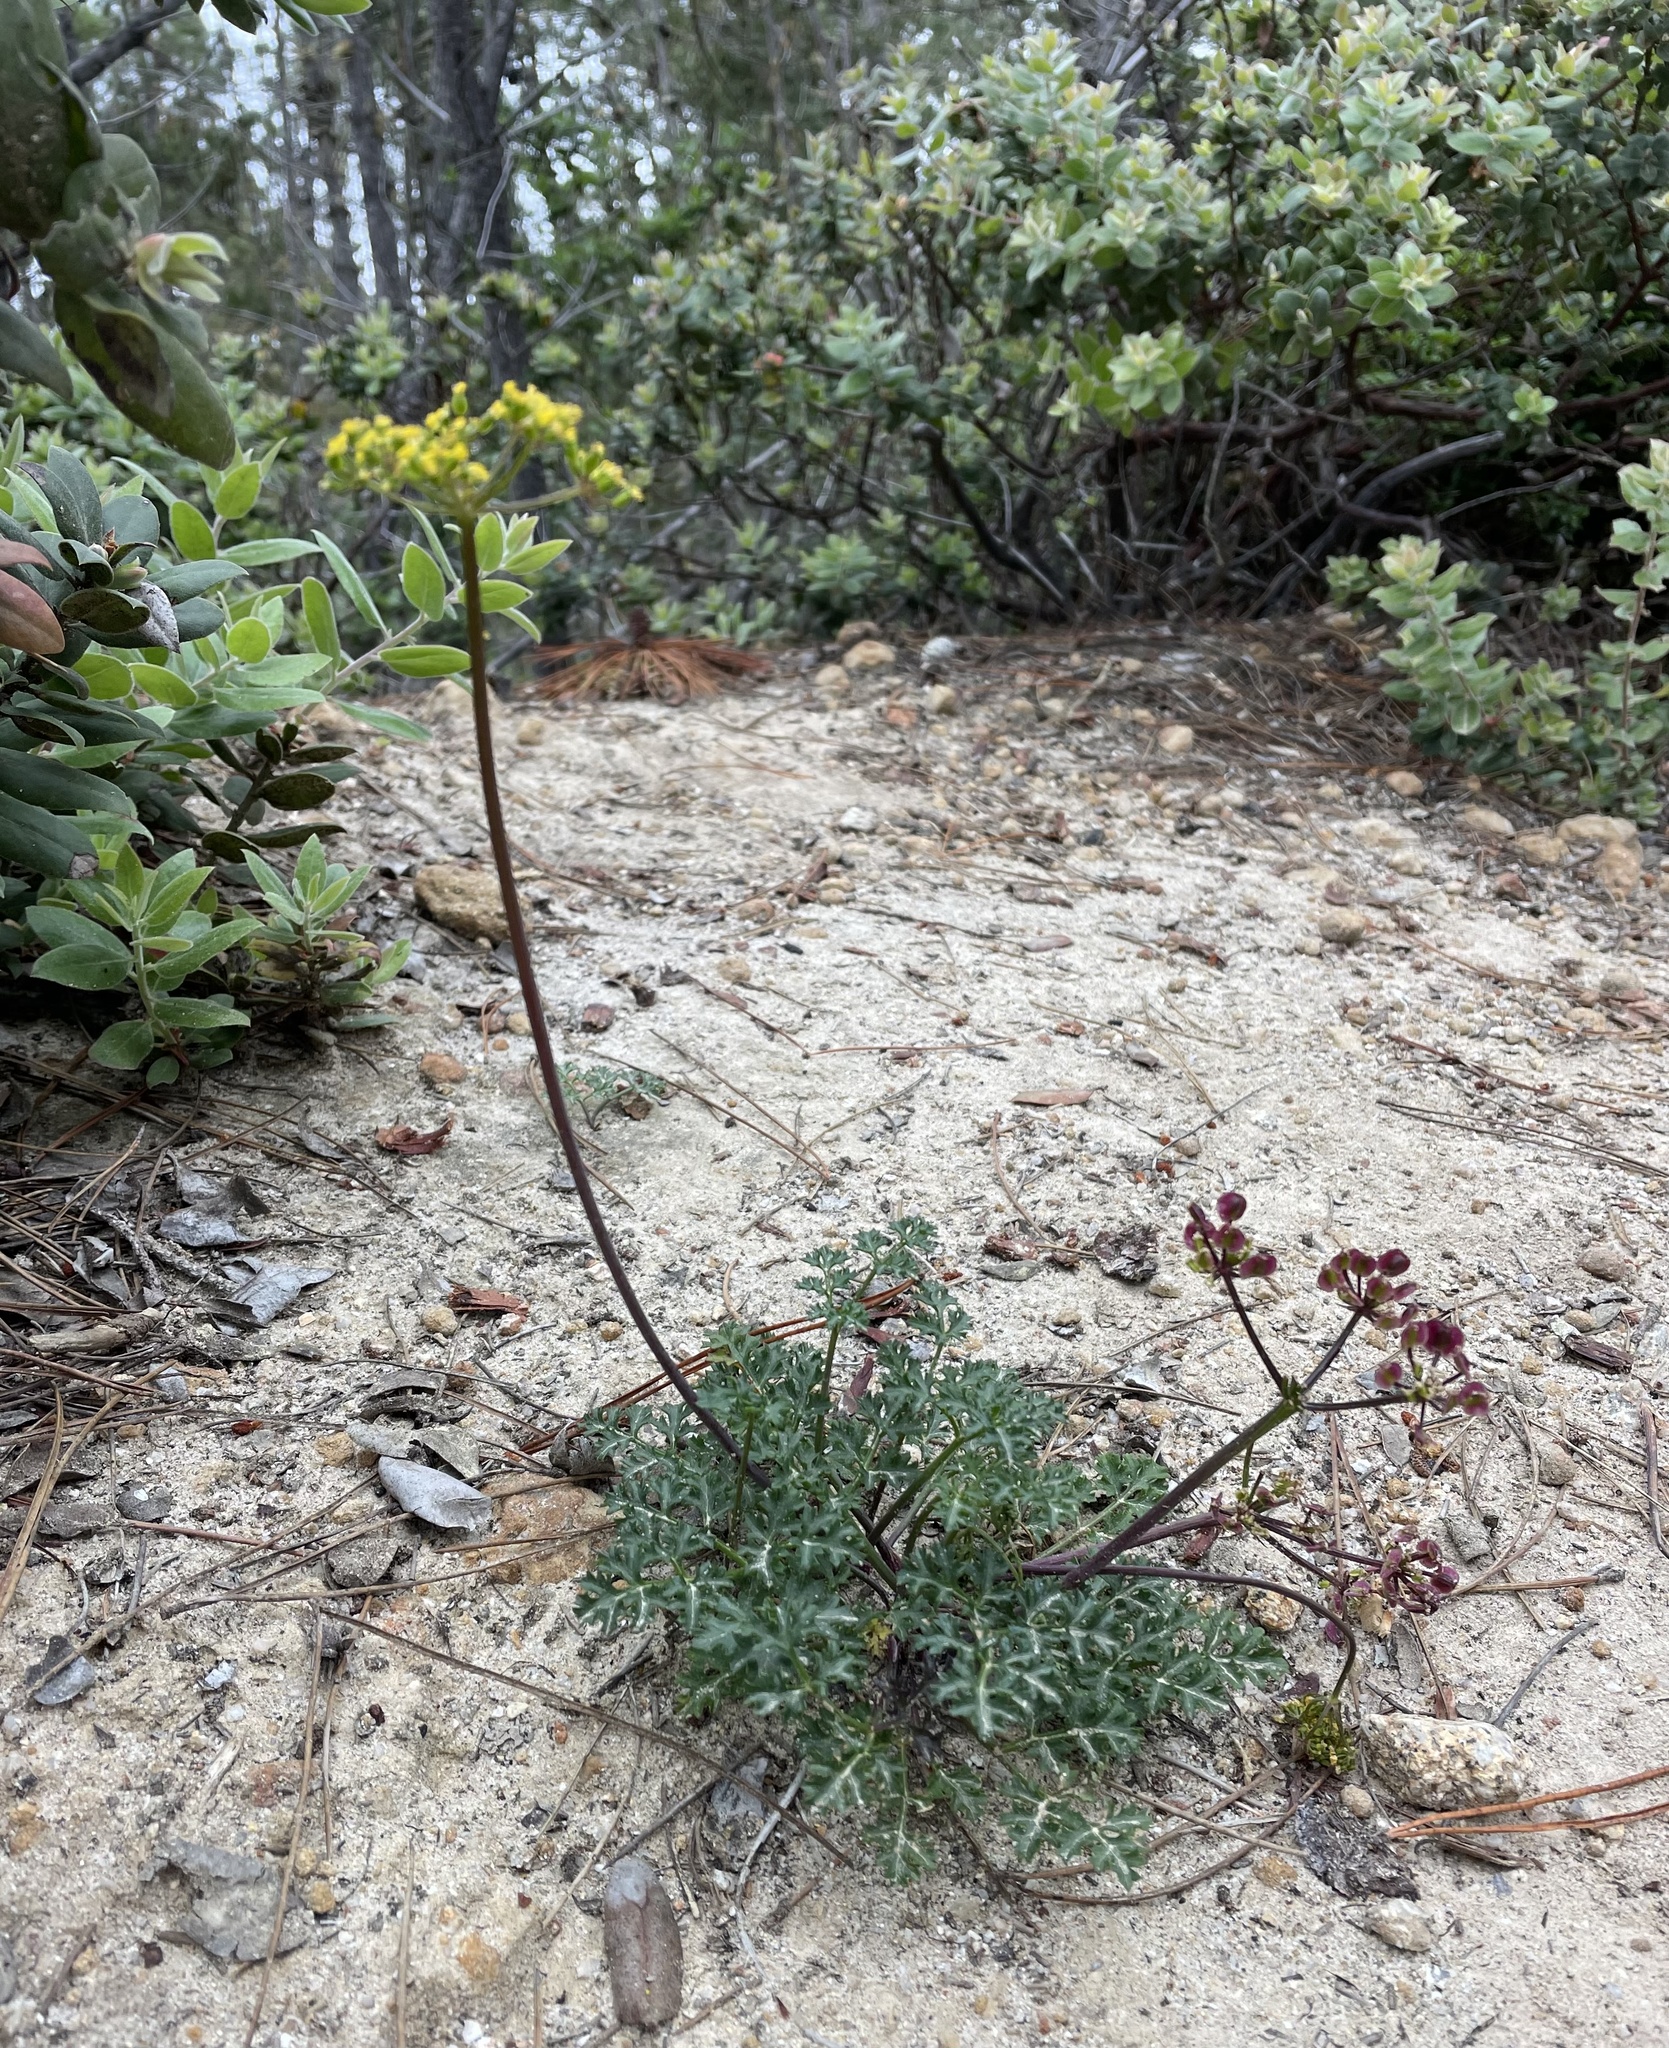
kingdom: Plantae
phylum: Tracheophyta
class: Magnoliopsida
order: Apiales
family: Apiaceae
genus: Lomatium
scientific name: Lomatium parvifolium
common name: Small-leaf lomatium
